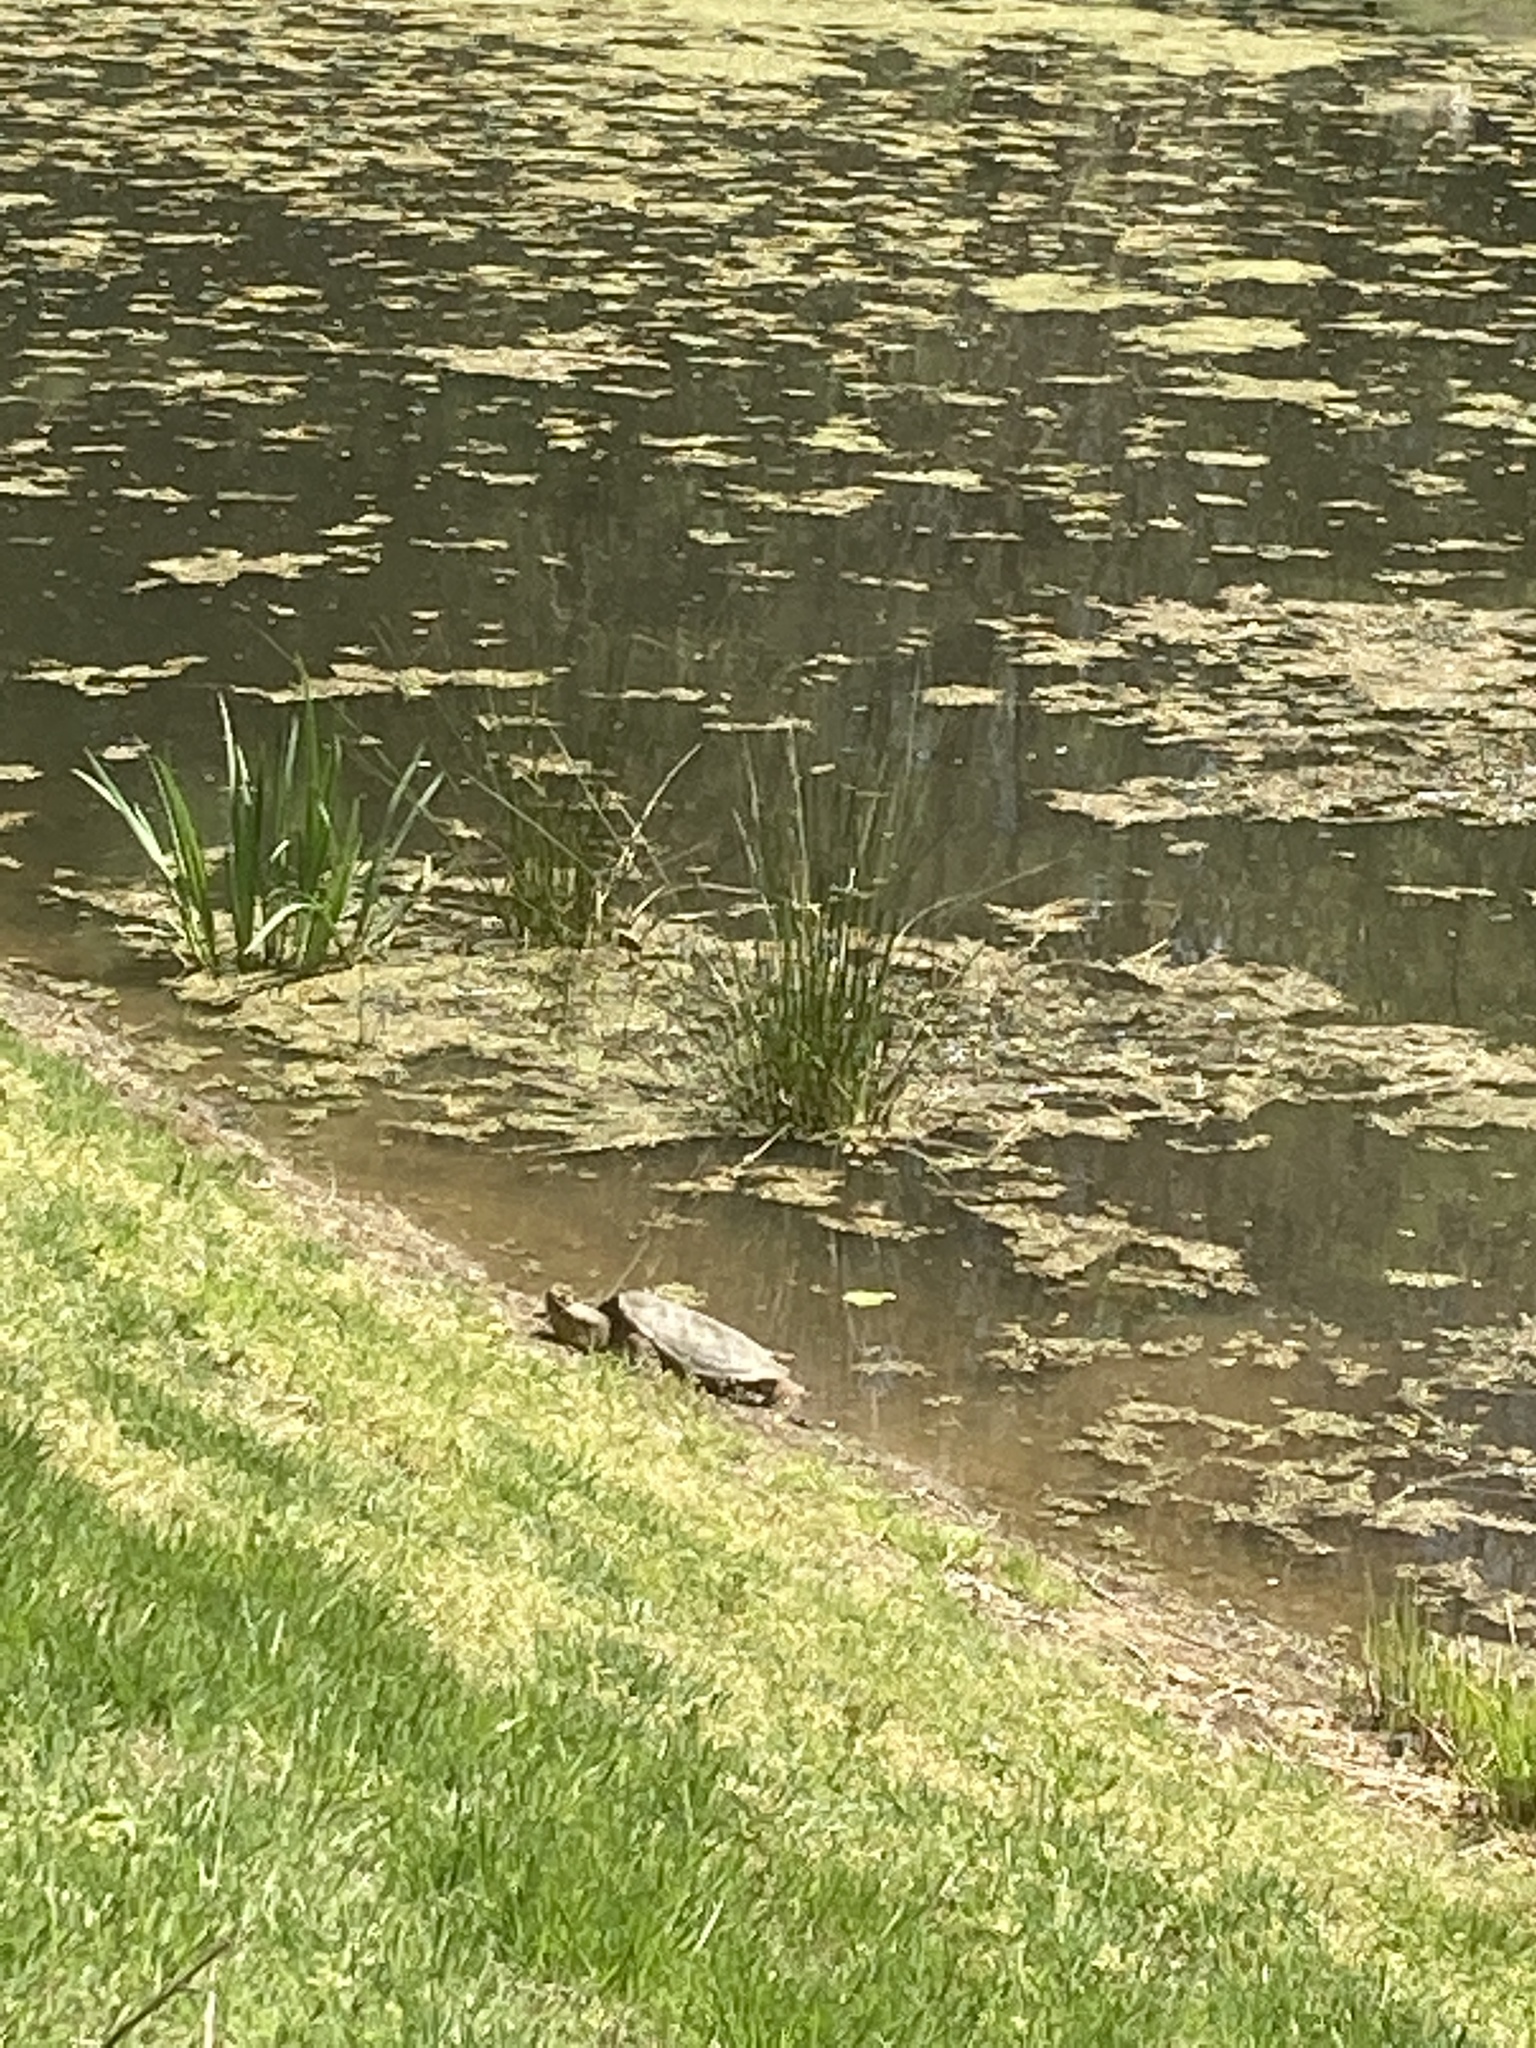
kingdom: Animalia
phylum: Chordata
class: Testudines
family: Chelydridae
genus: Chelydra
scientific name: Chelydra serpentina
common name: Common snapping turtle
